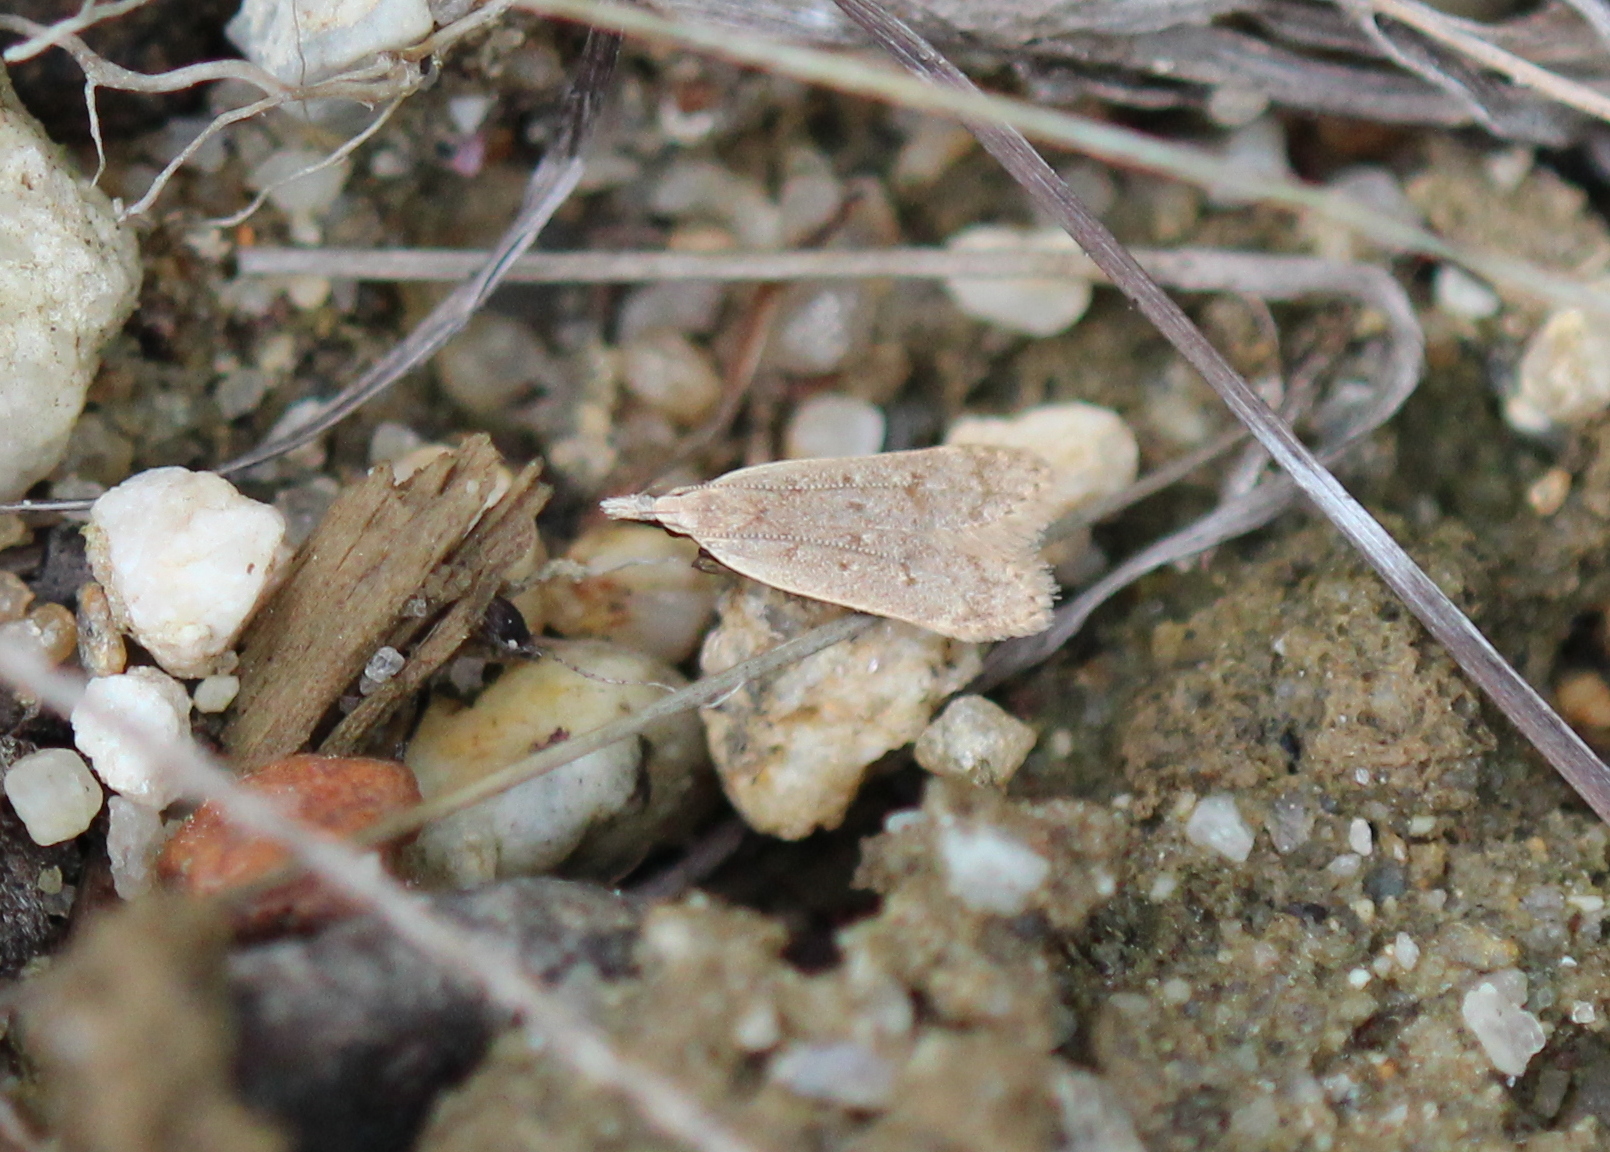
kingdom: Animalia
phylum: Arthropoda
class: Insecta
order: Lepidoptera
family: Gelechiidae
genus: Dichomeris
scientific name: Dichomeris punctidiscellus
